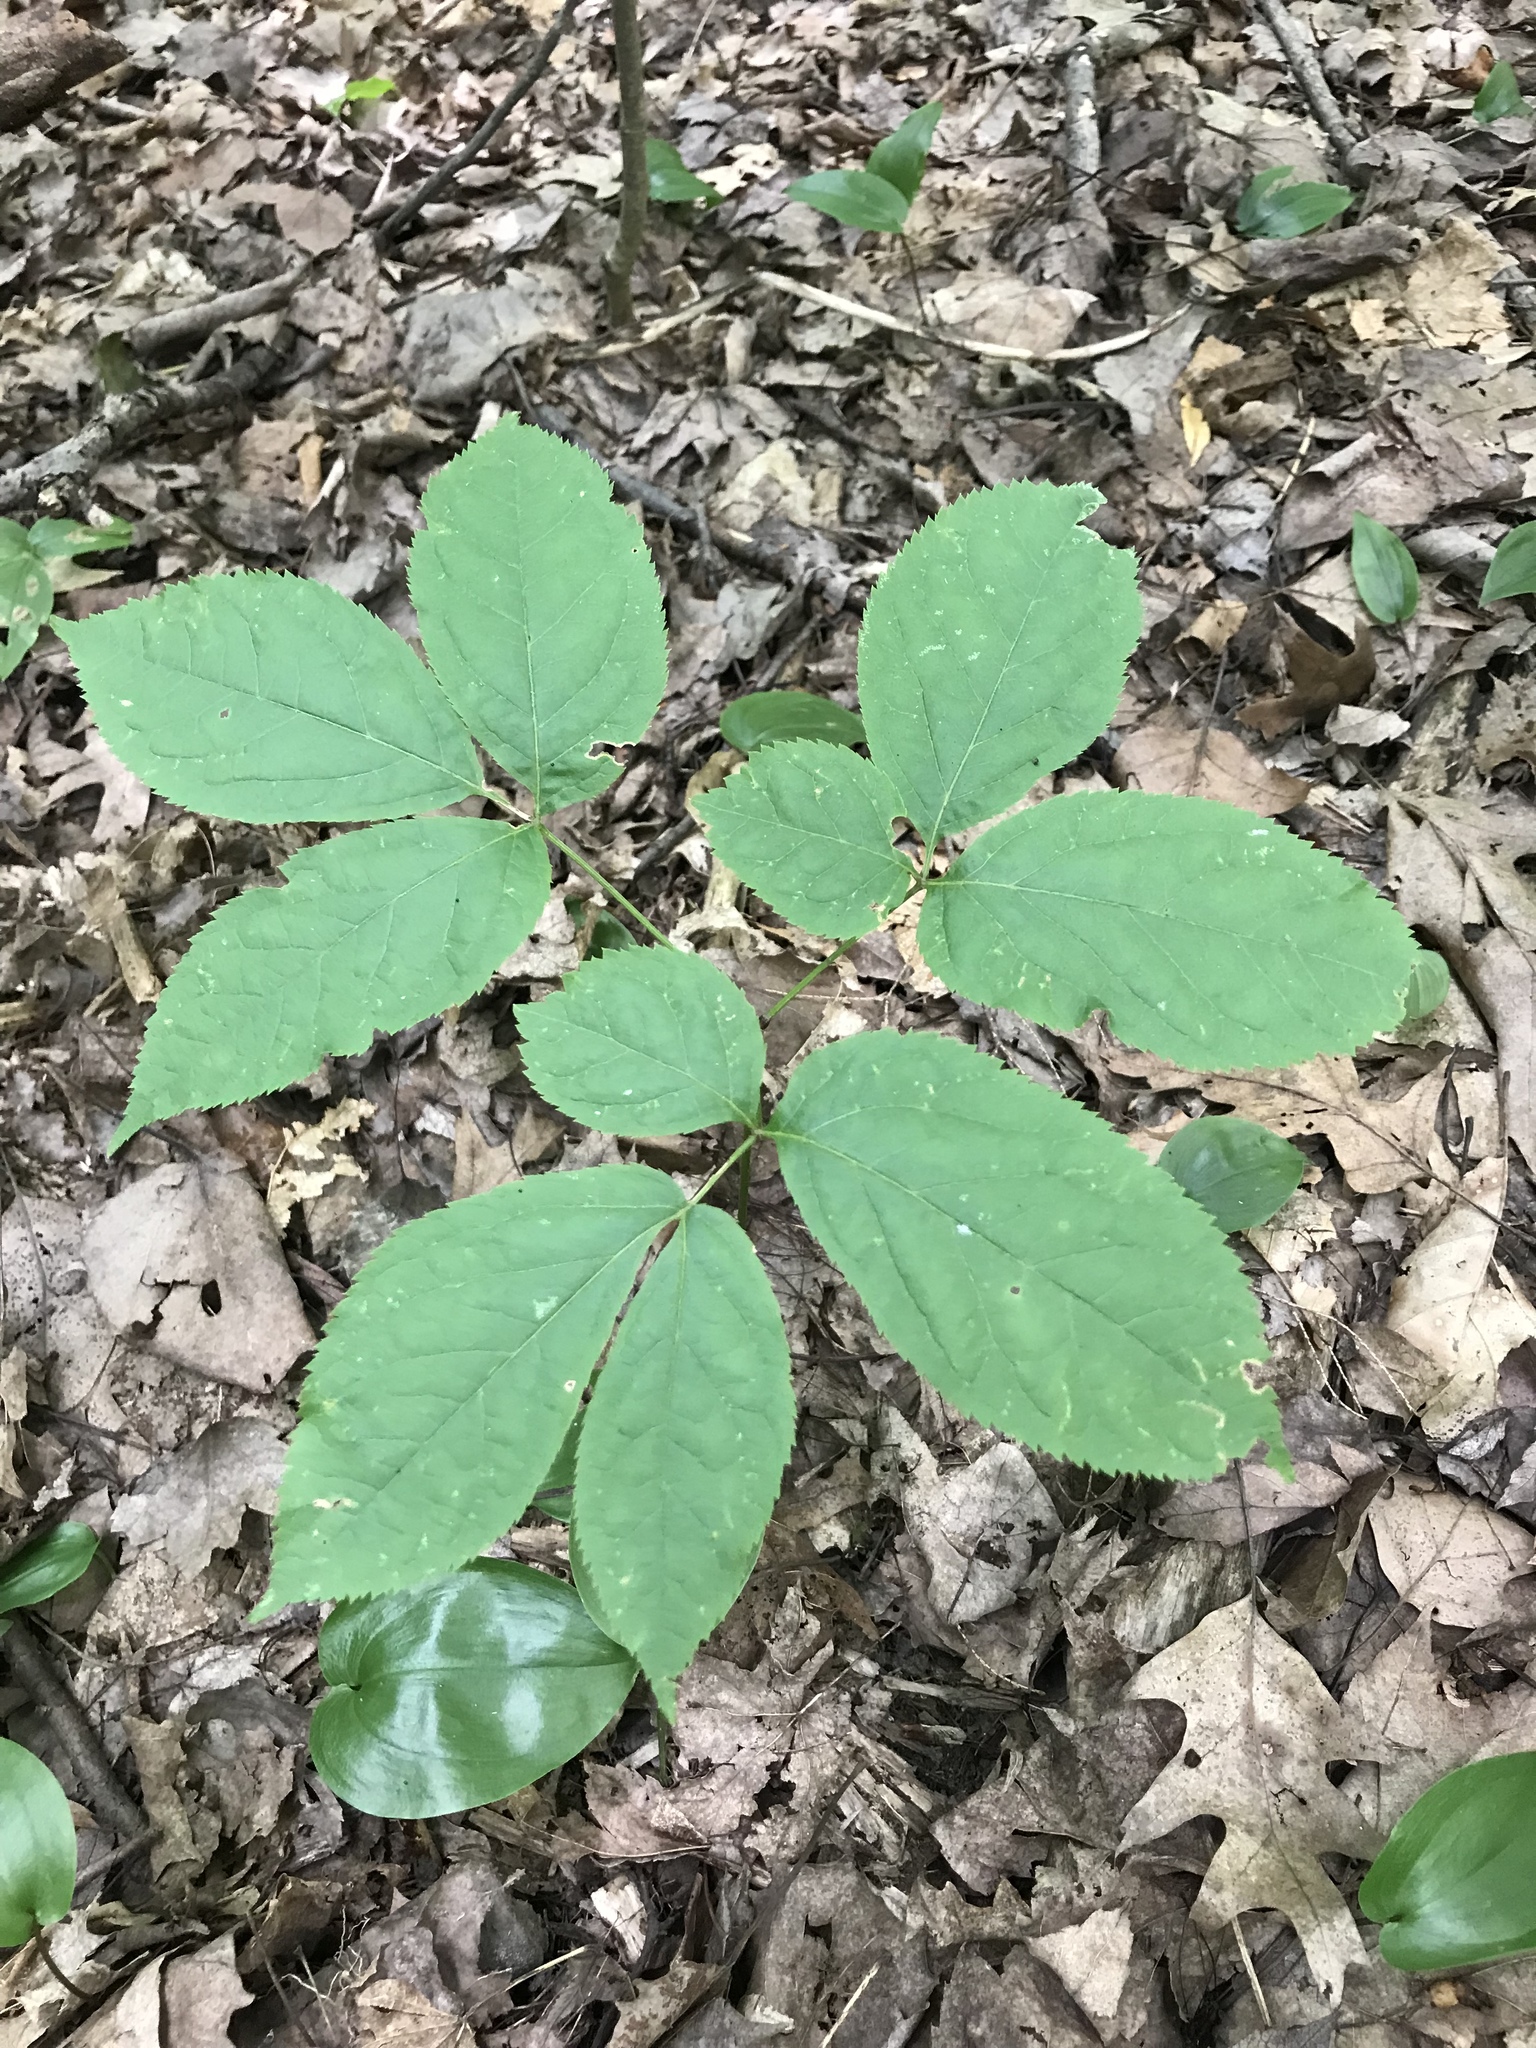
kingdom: Plantae
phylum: Tracheophyta
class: Magnoliopsida
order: Apiales
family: Araliaceae
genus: Aralia
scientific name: Aralia nudicaulis
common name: Wild sarsaparilla
